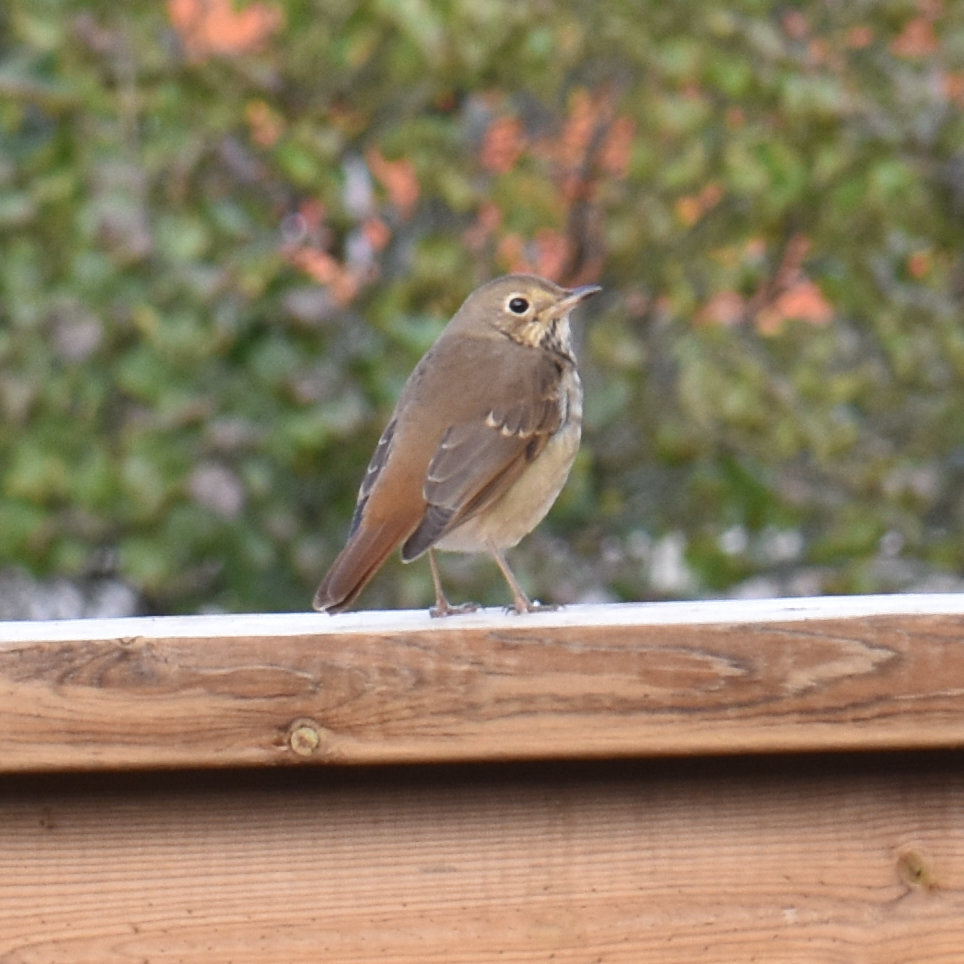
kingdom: Animalia
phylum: Chordata
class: Aves
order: Passeriformes
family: Turdidae
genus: Catharus
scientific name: Catharus guttatus
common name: Hermit thrush
